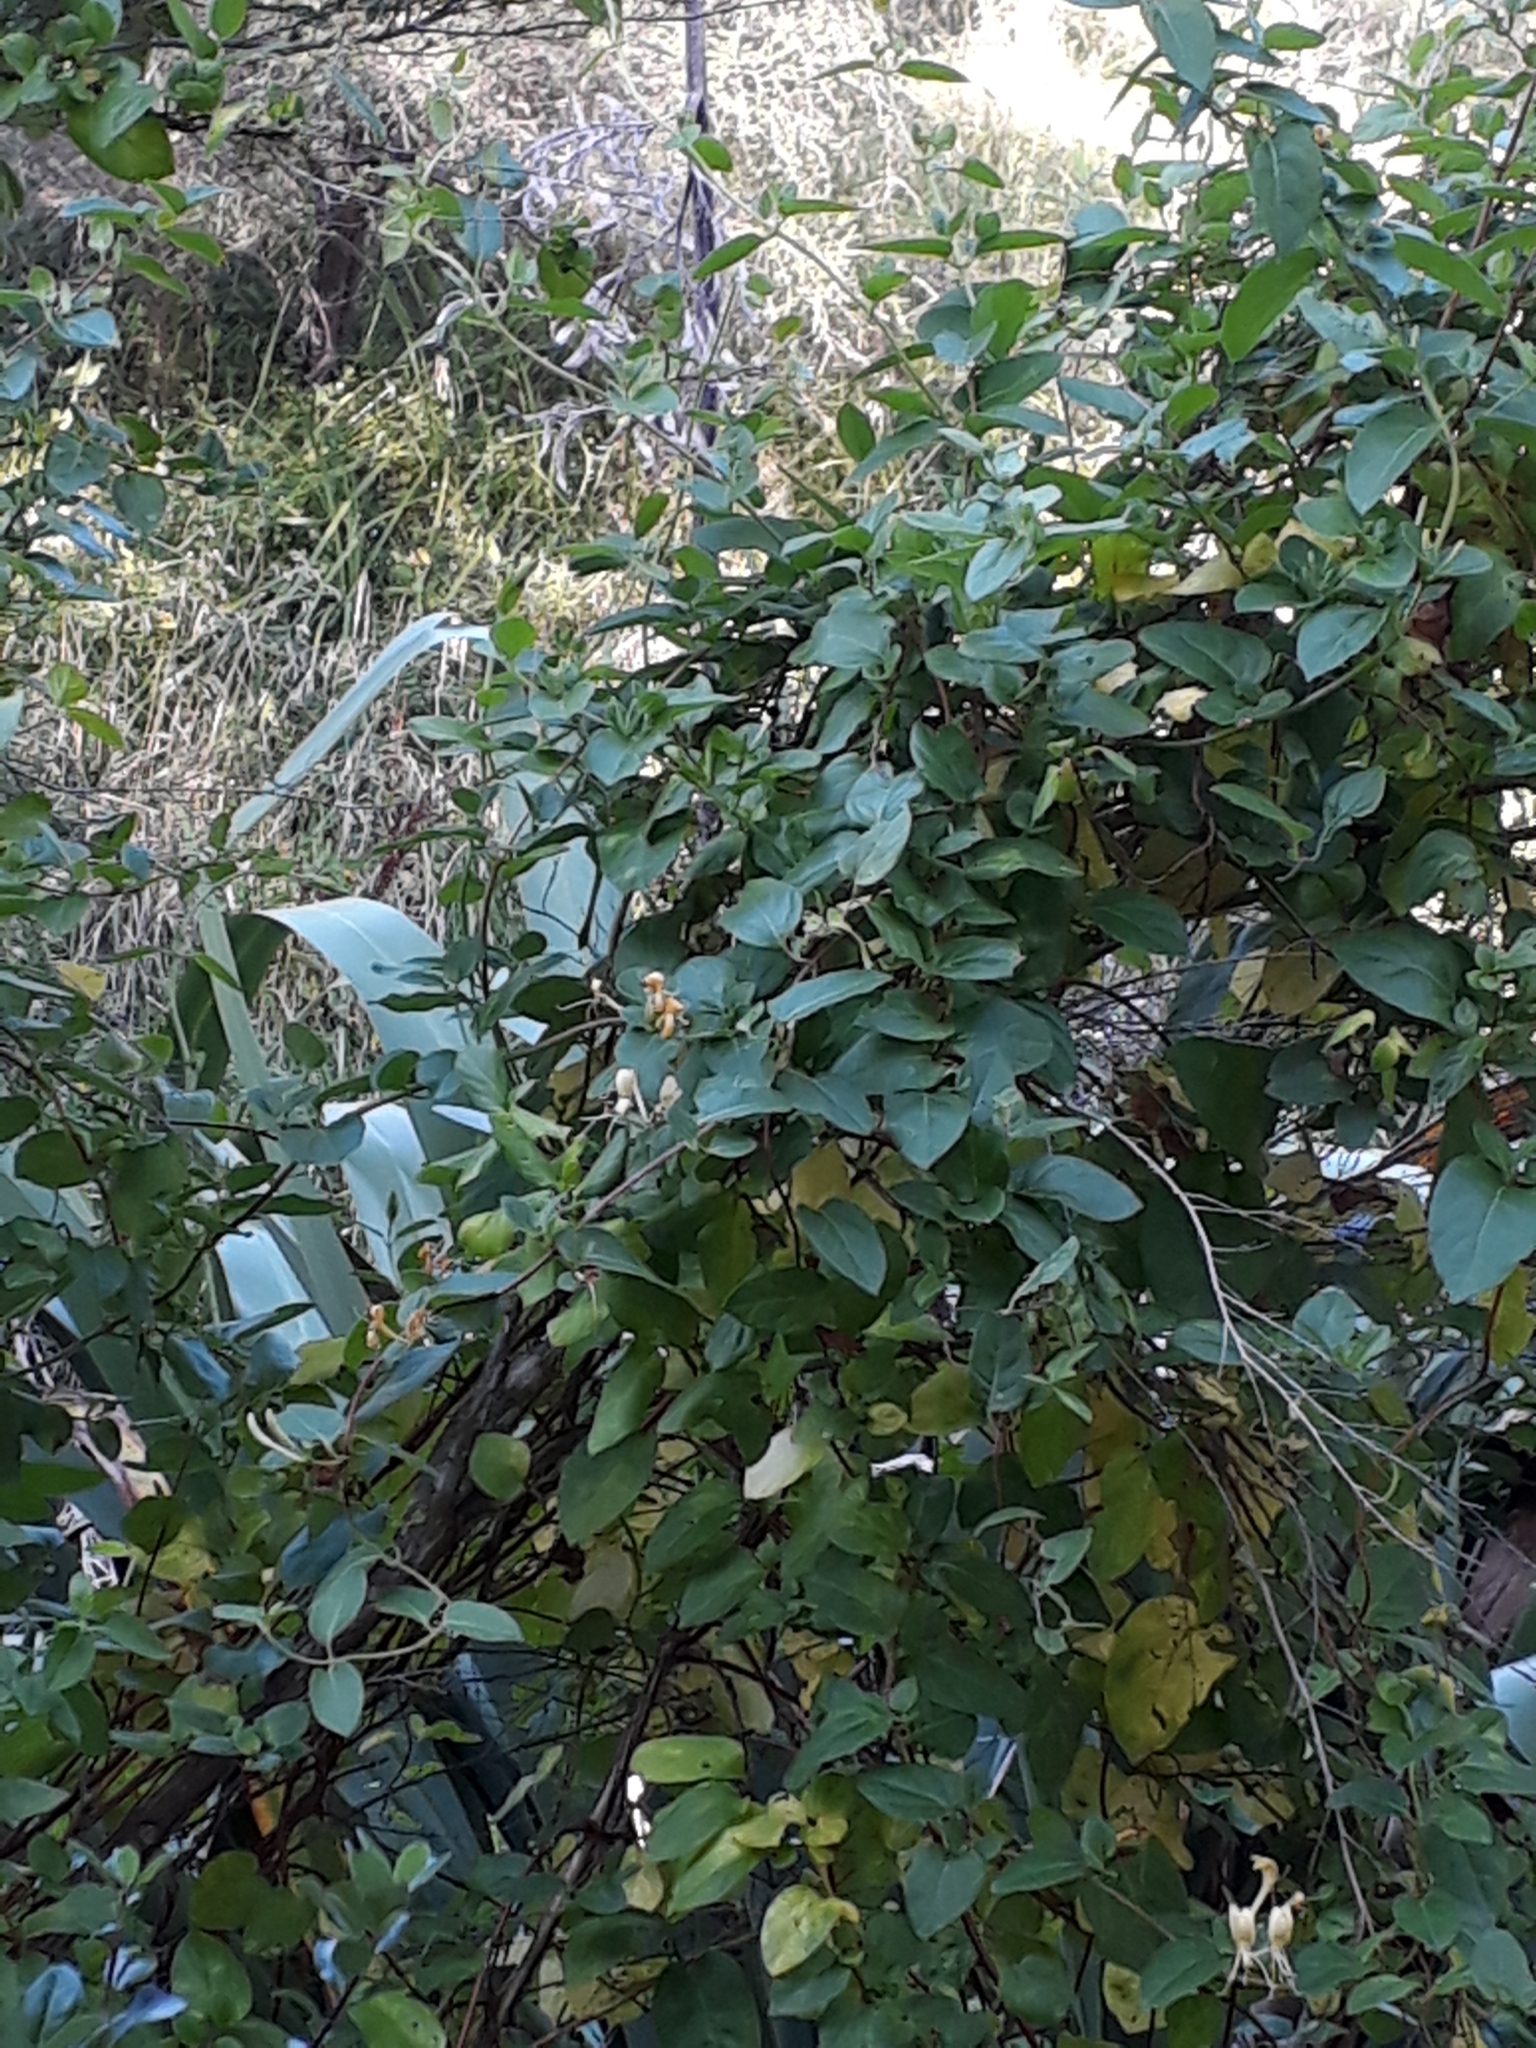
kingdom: Plantae
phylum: Tracheophyta
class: Magnoliopsida
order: Dipsacales
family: Caprifoliaceae
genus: Lonicera
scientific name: Lonicera japonica
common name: Japanese honeysuckle
